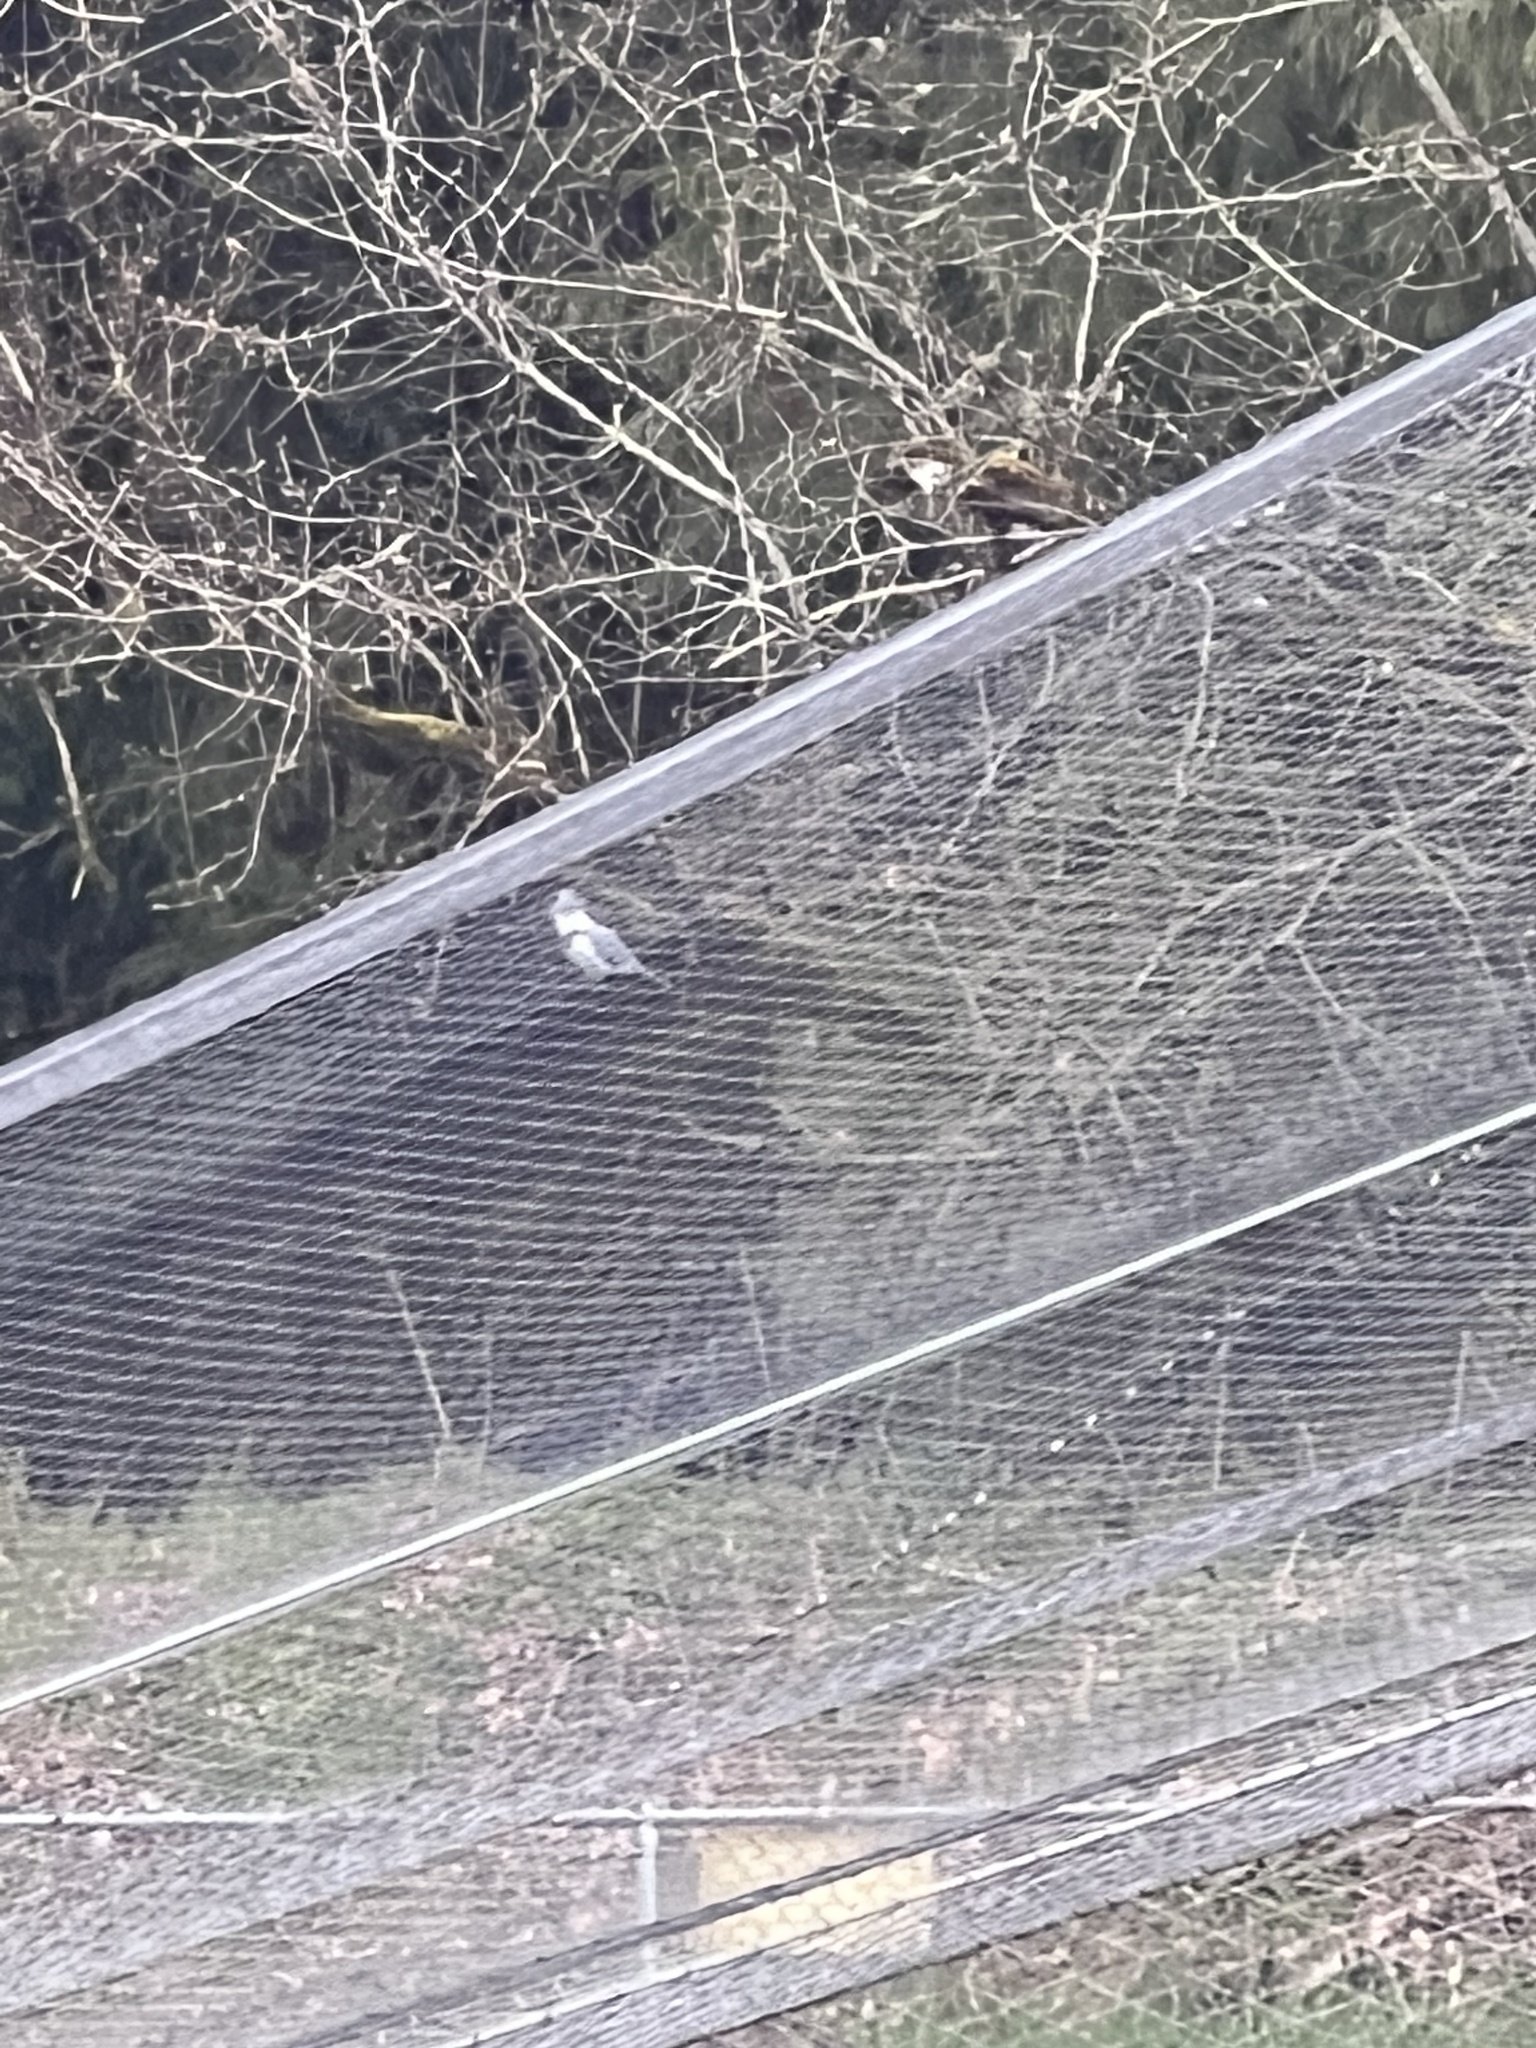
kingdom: Animalia
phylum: Chordata
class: Aves
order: Coraciiformes
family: Alcedinidae
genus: Megaceryle
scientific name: Megaceryle alcyon
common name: Belted kingfisher
